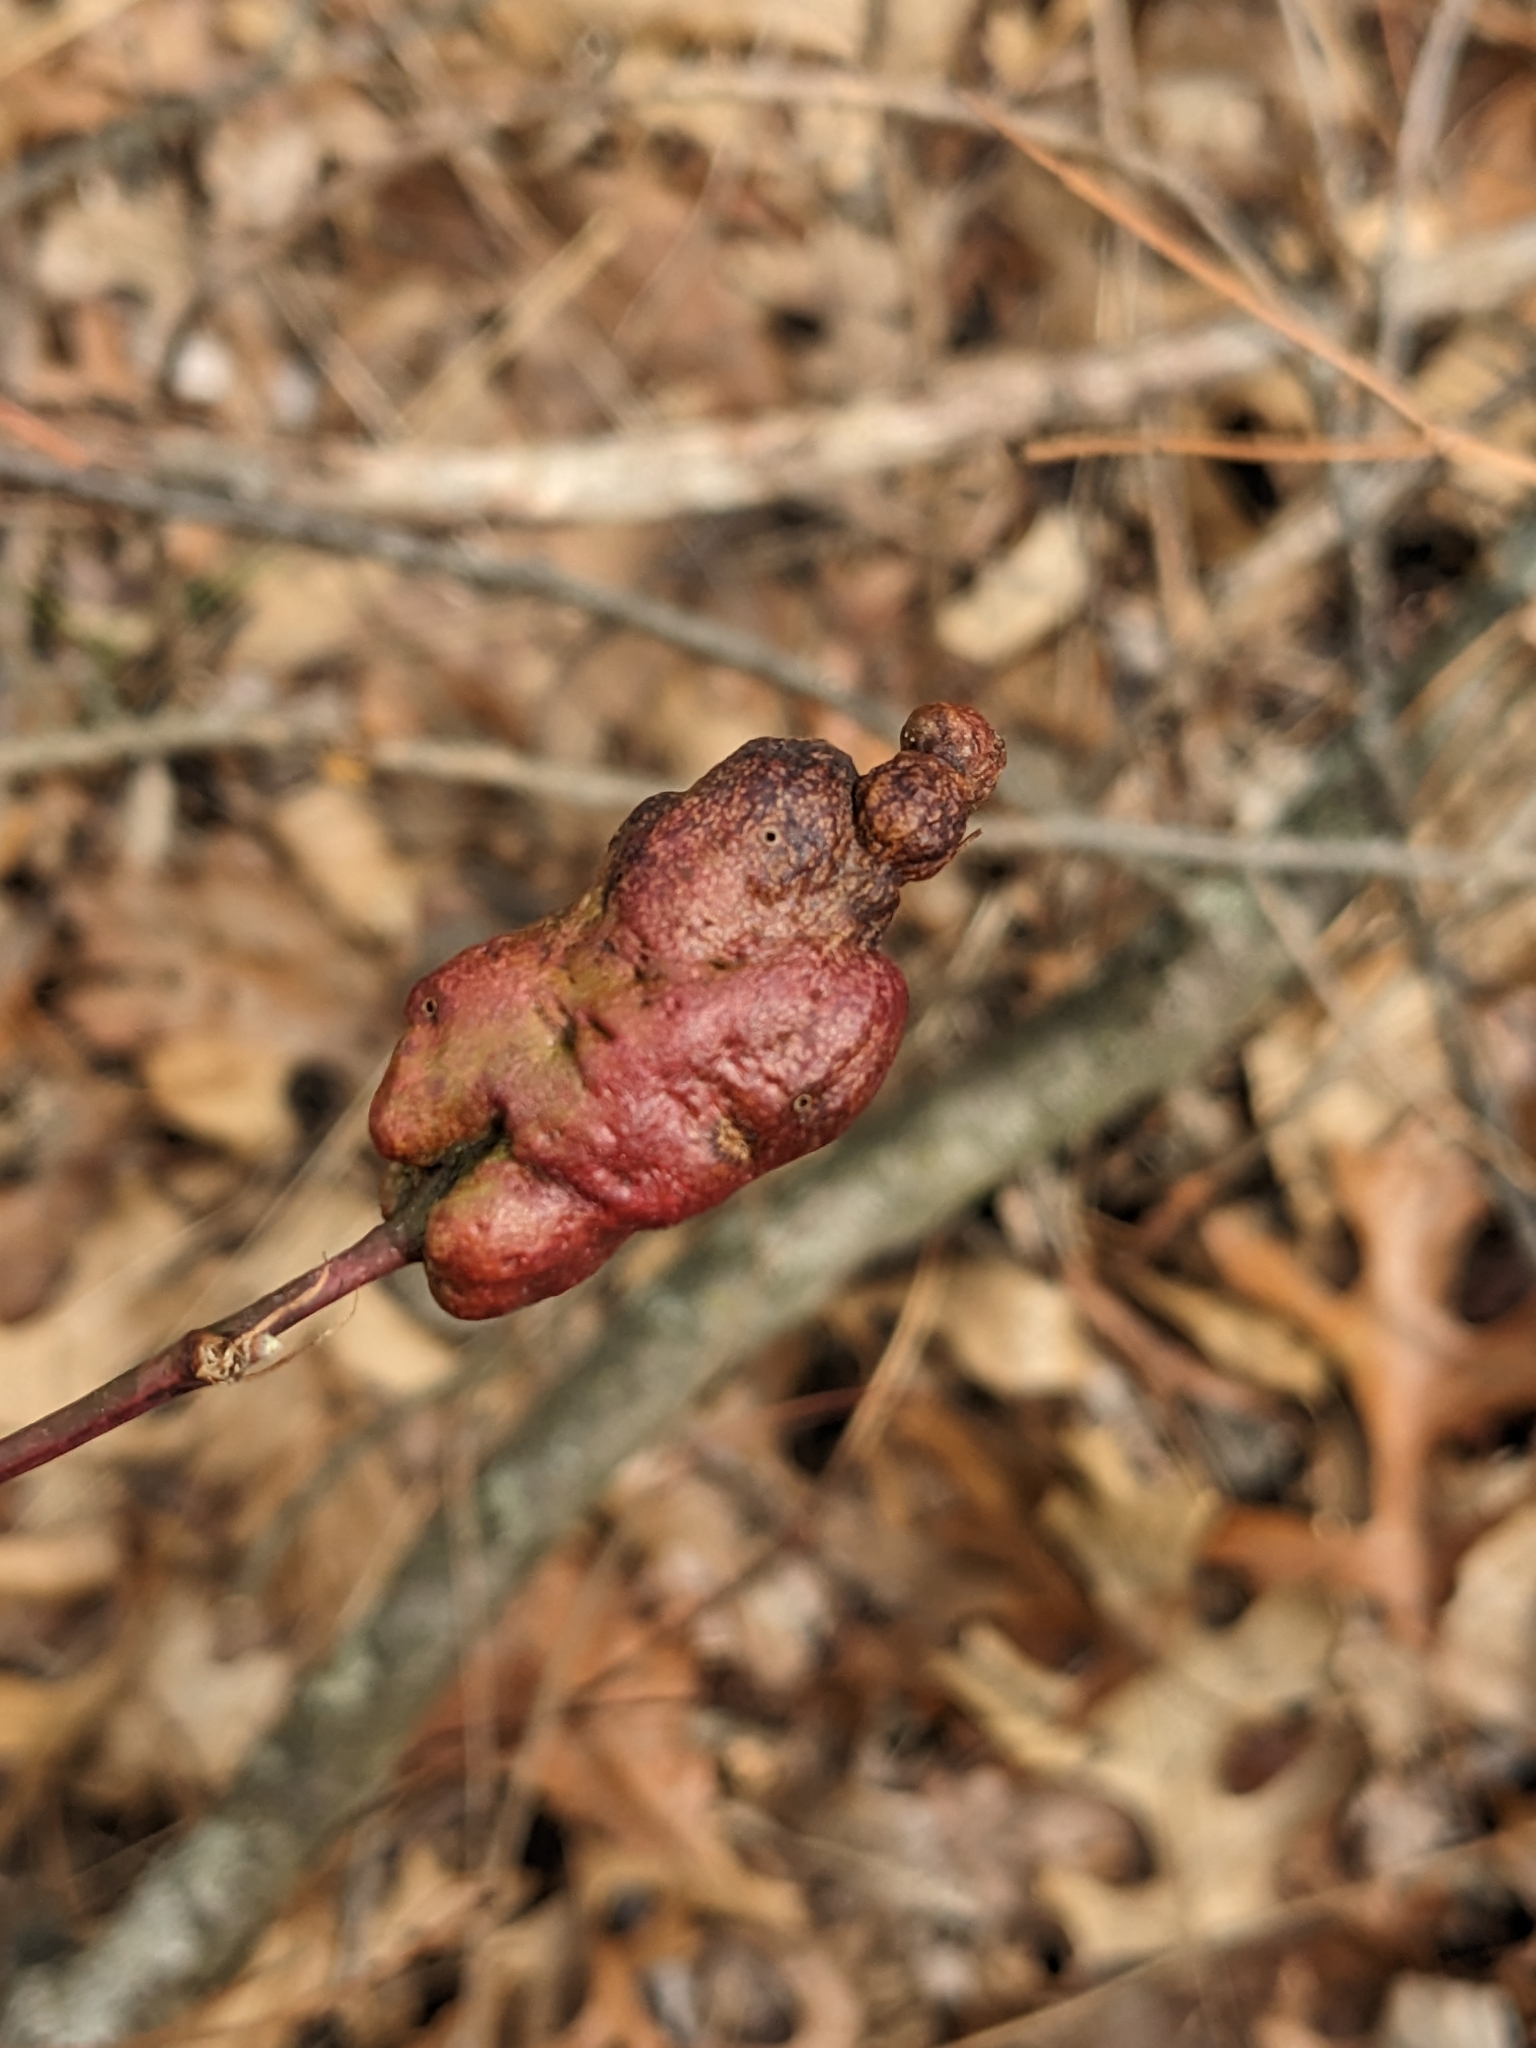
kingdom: Animalia
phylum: Arthropoda
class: Insecta
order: Hymenoptera
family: Cynipidae
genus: Diastrophus
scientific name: Diastrophus
